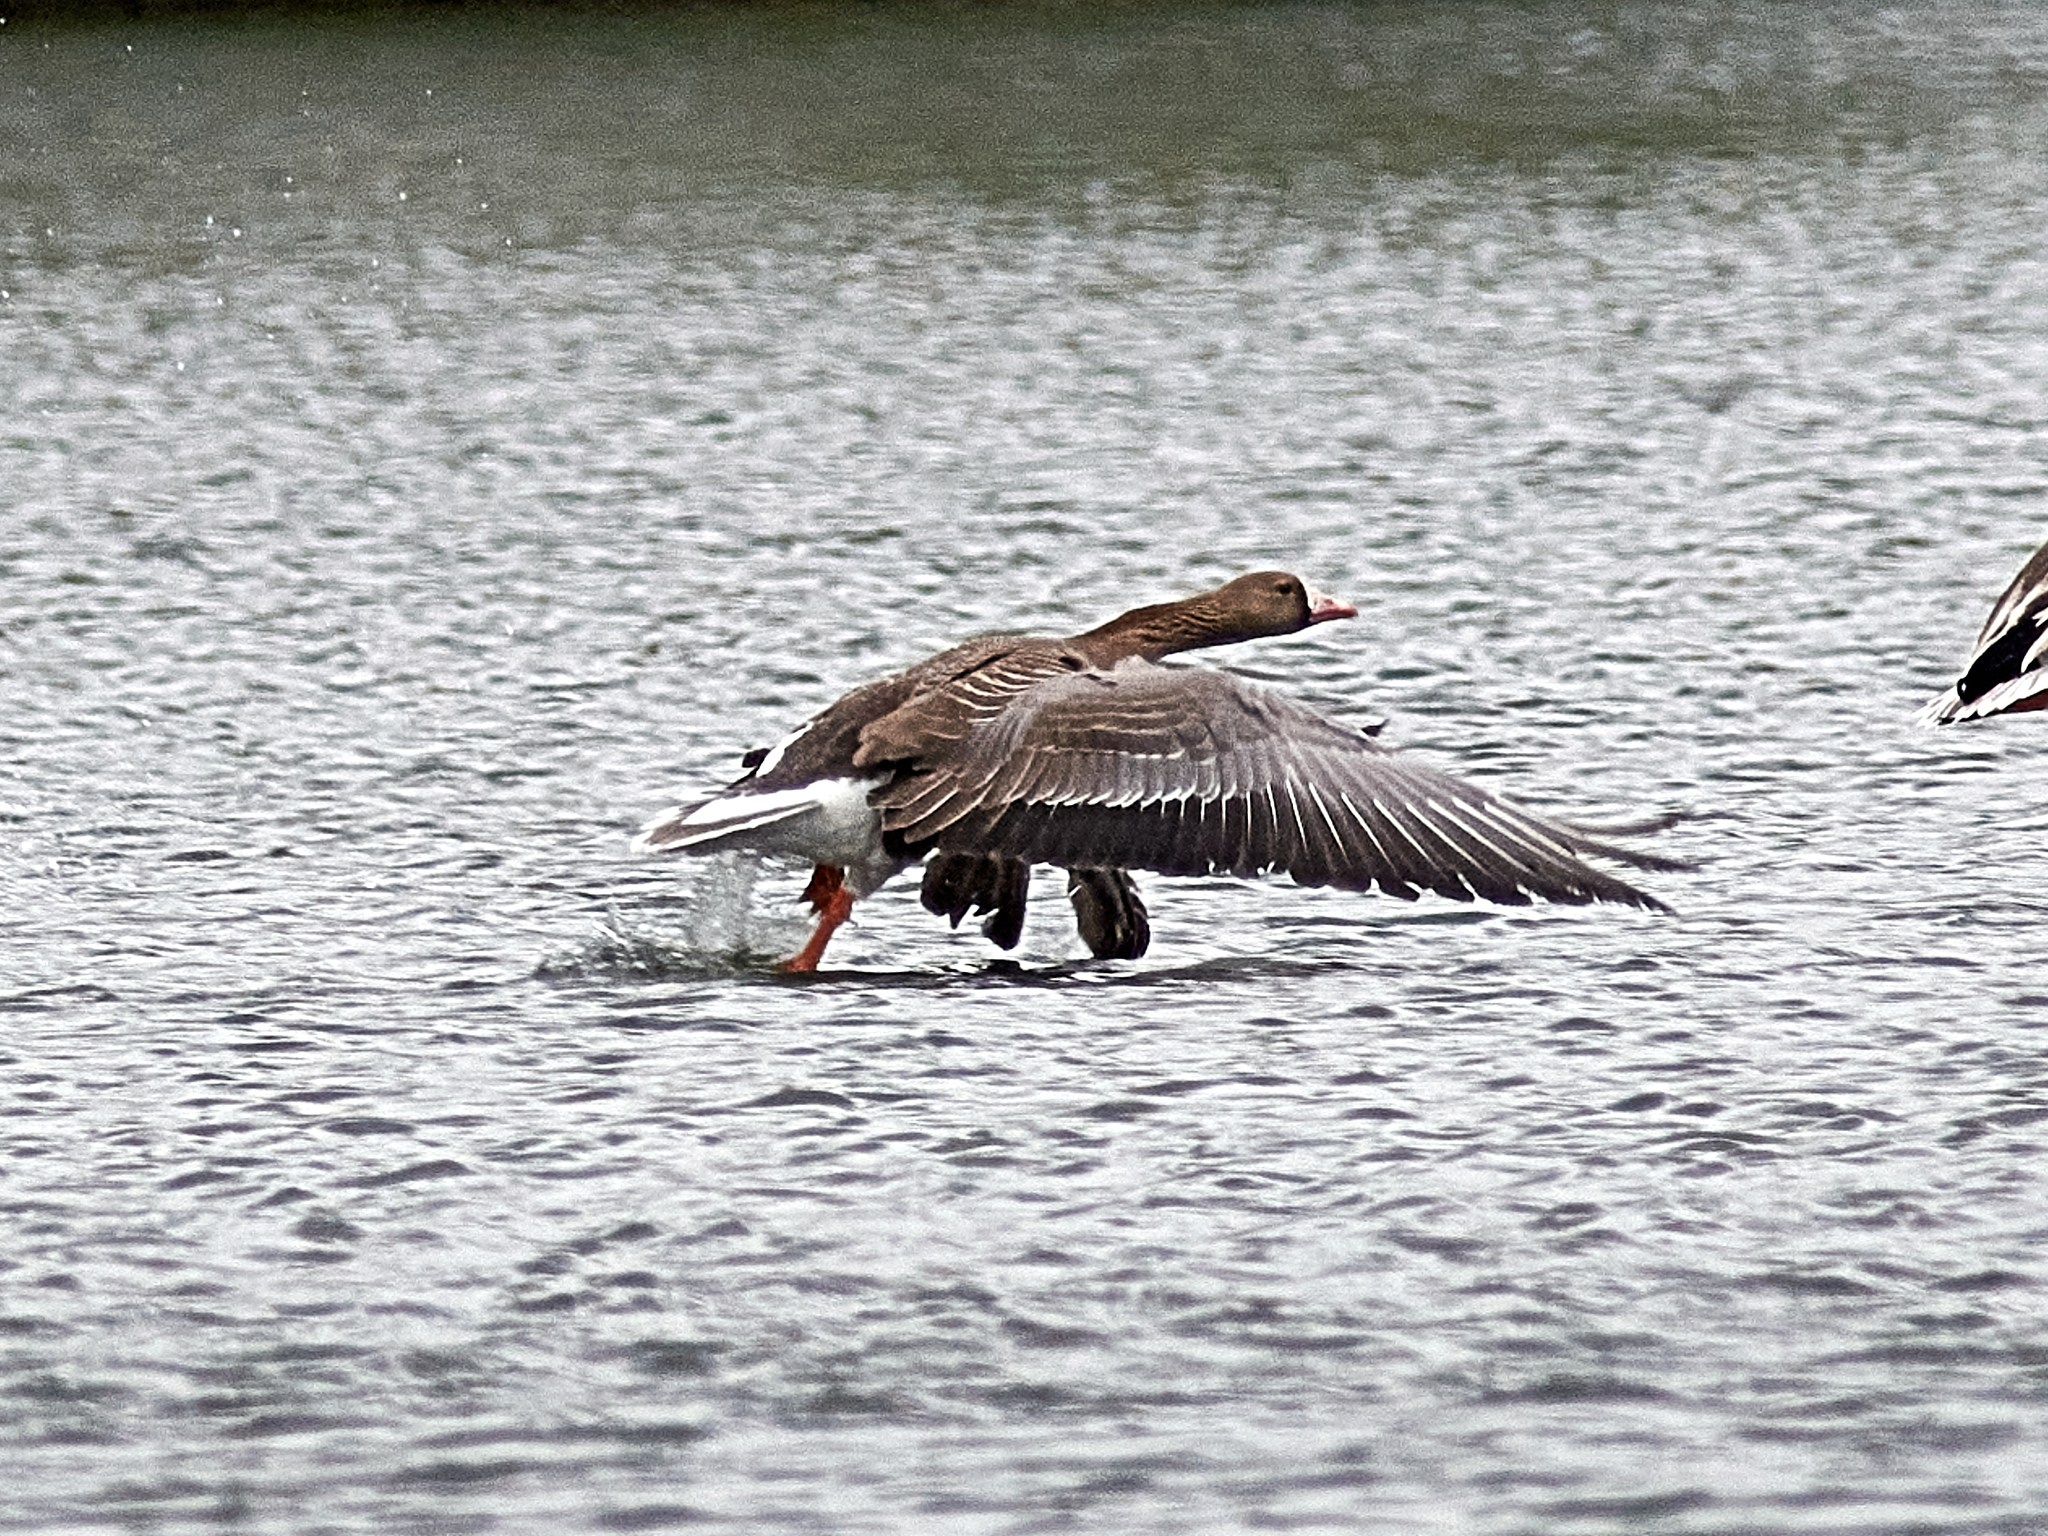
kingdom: Animalia
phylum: Chordata
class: Aves
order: Anseriformes
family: Anatidae
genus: Anser
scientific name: Anser albifrons
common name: Greater white-fronted goose
